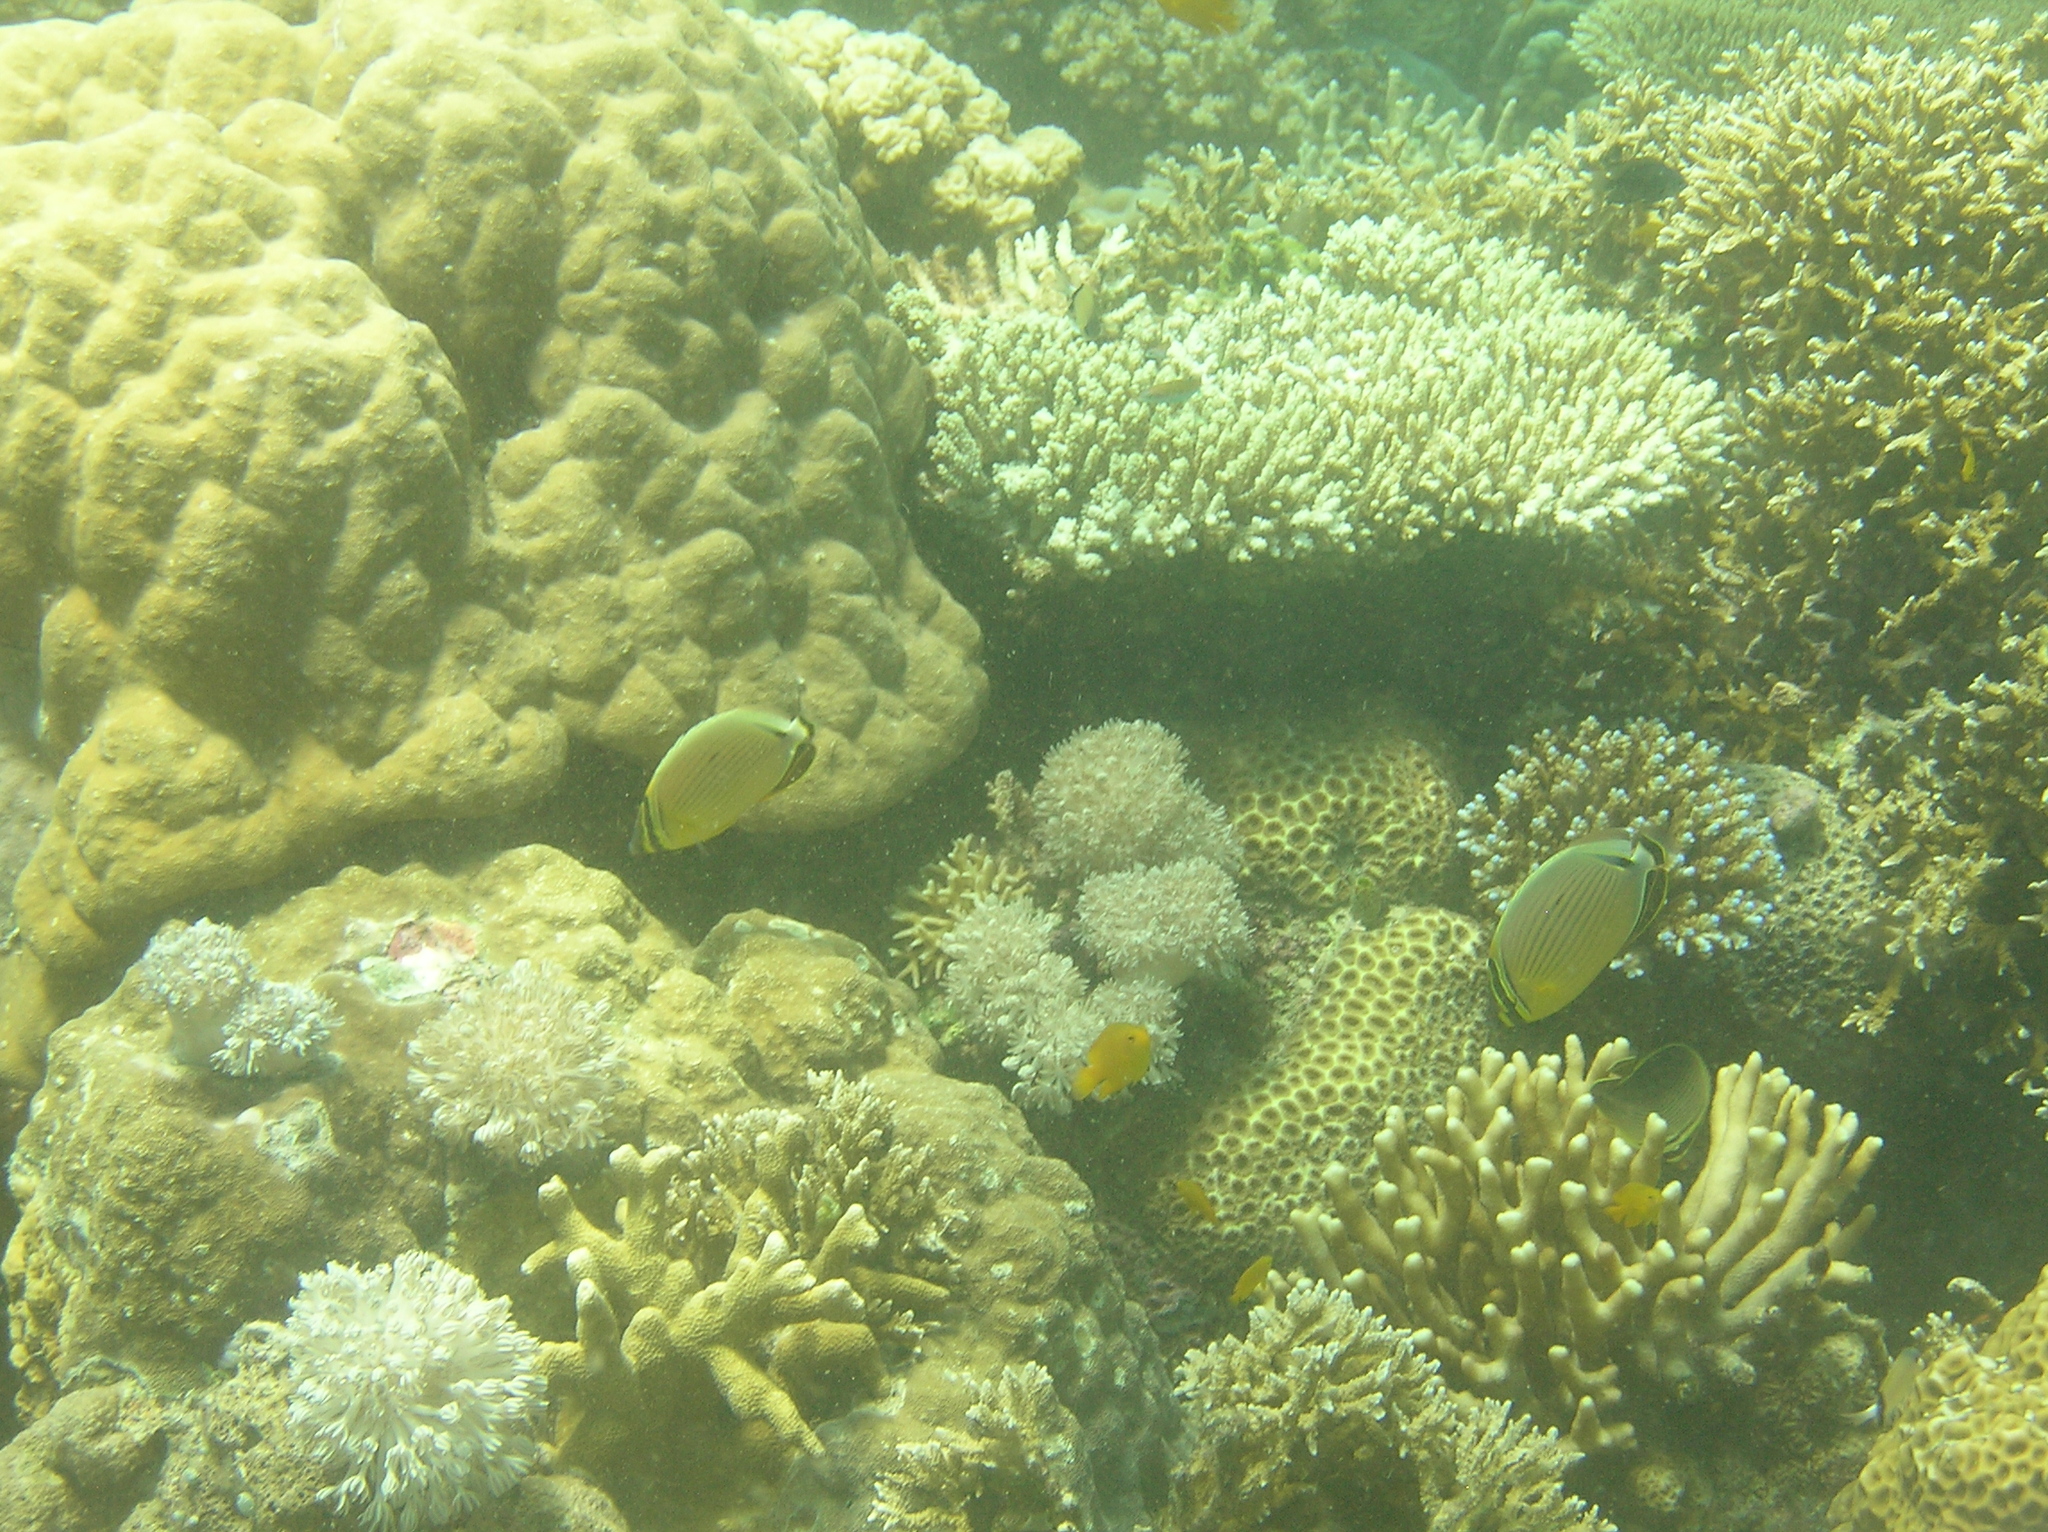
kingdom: Animalia
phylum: Chordata
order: Perciformes
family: Chaetodontidae
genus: Chaetodon
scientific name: Chaetodon lunulatus
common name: Redfin butterflyfish
